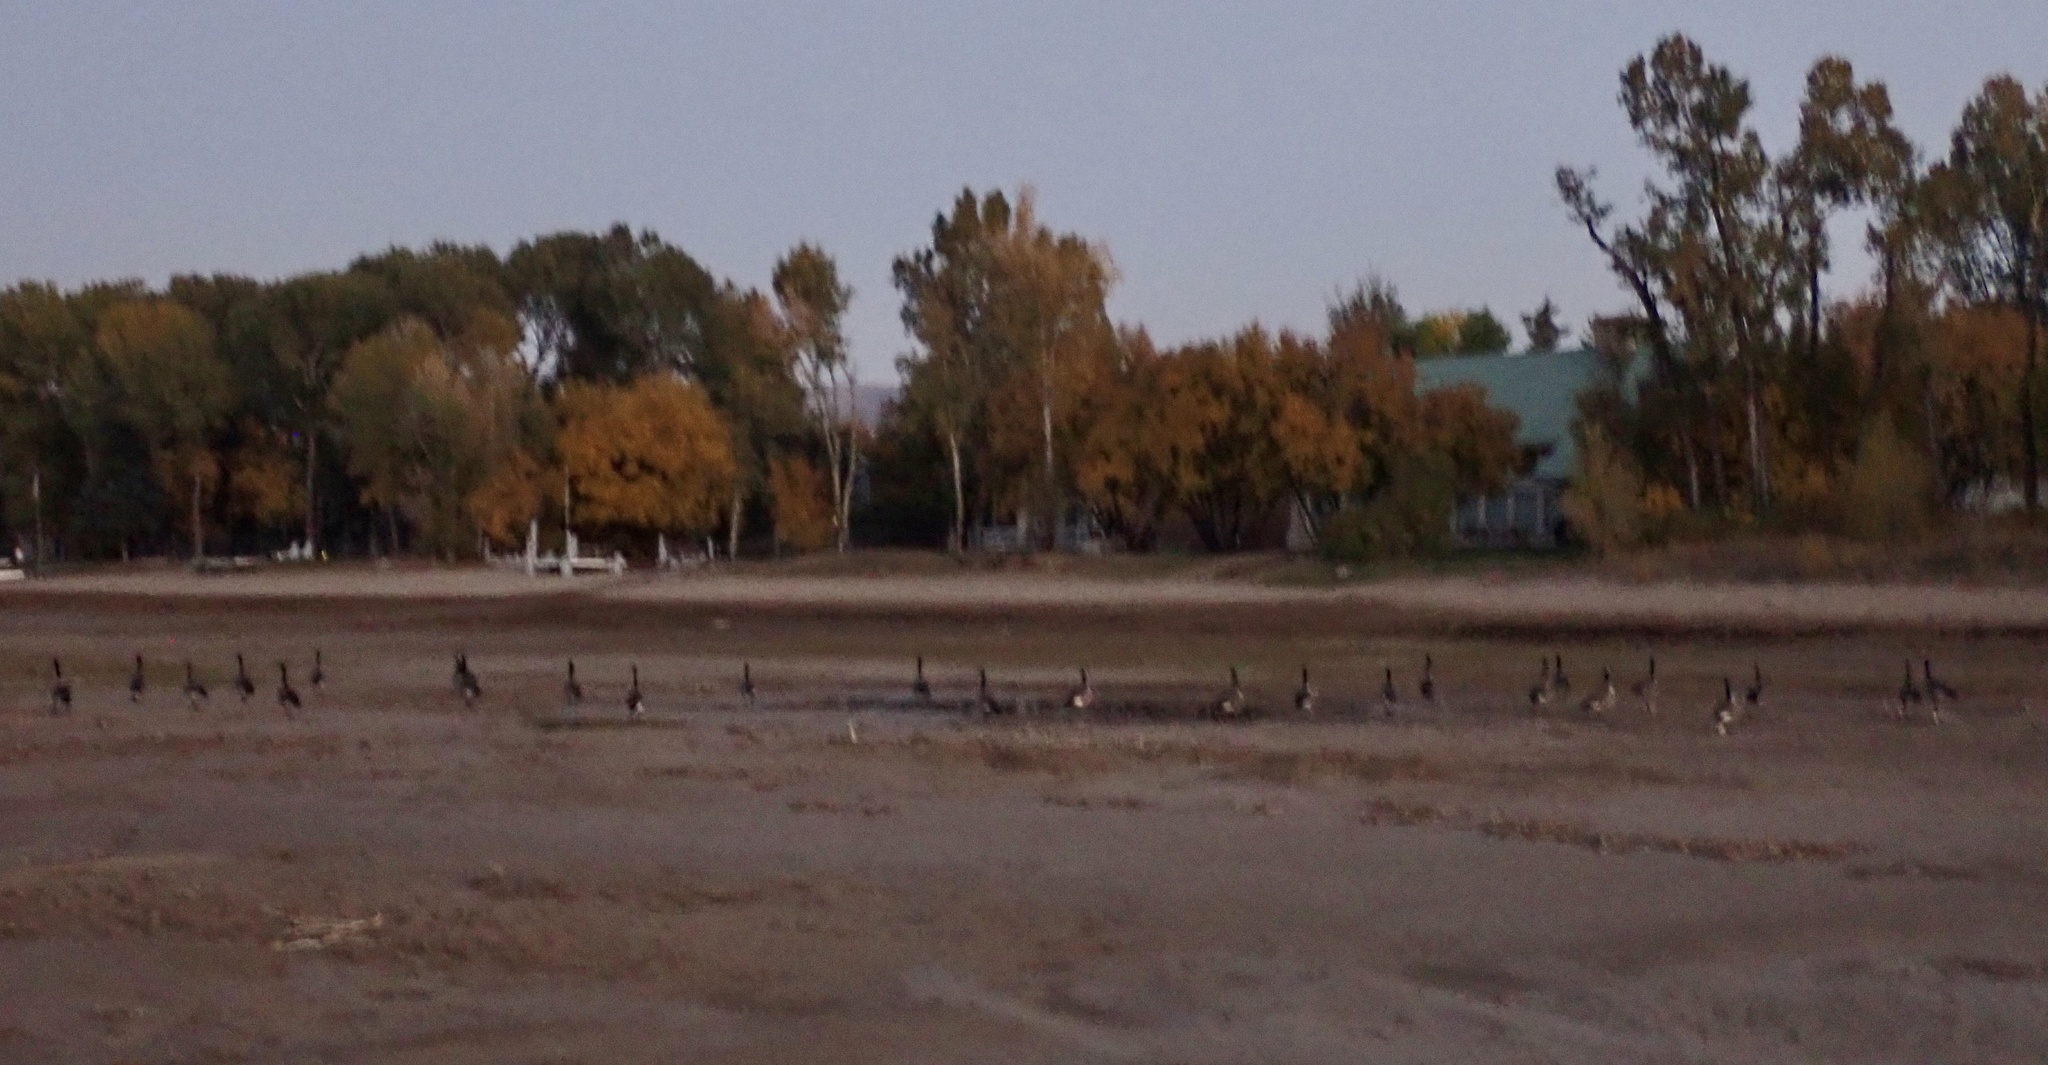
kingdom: Animalia
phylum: Chordata
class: Aves
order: Anseriformes
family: Anatidae
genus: Branta
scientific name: Branta canadensis
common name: Canada goose
